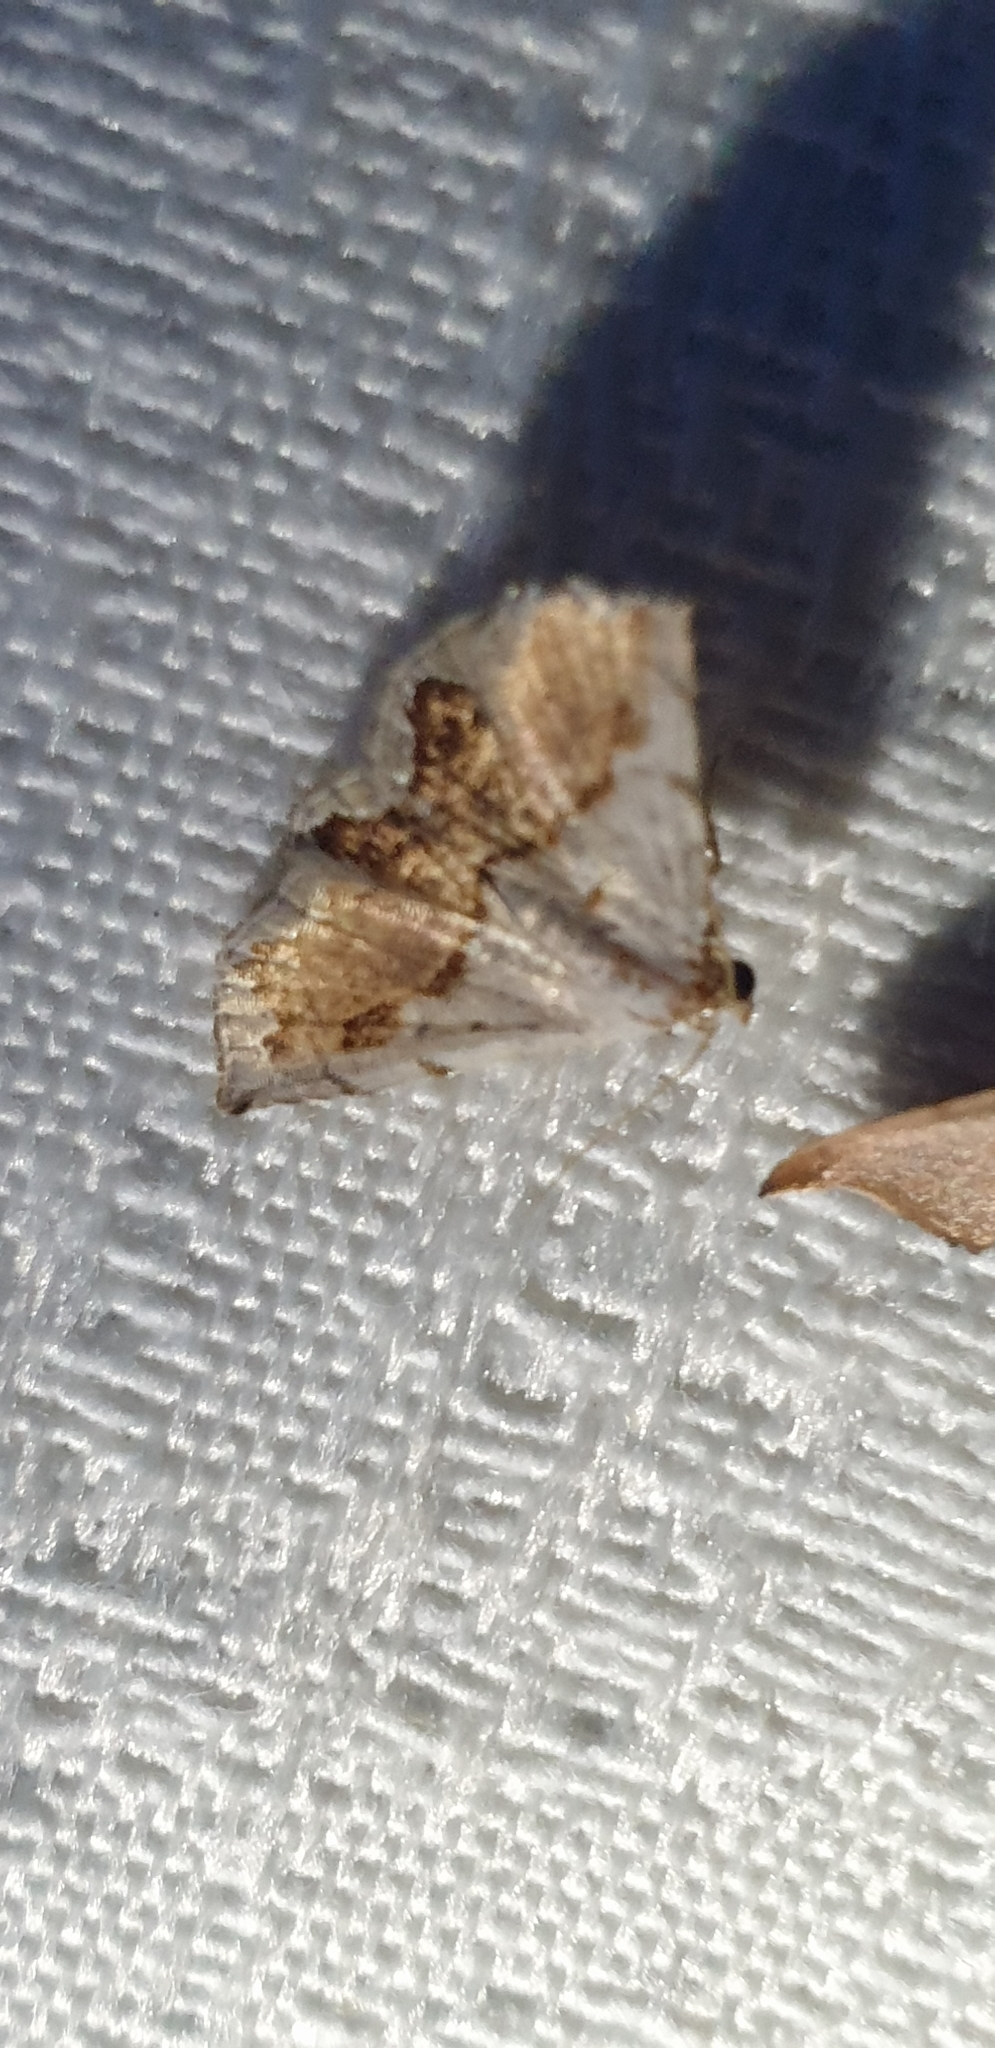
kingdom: Animalia
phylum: Arthropoda
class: Insecta
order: Lepidoptera
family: Noctuidae
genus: Eublemma
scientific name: Eublemma
